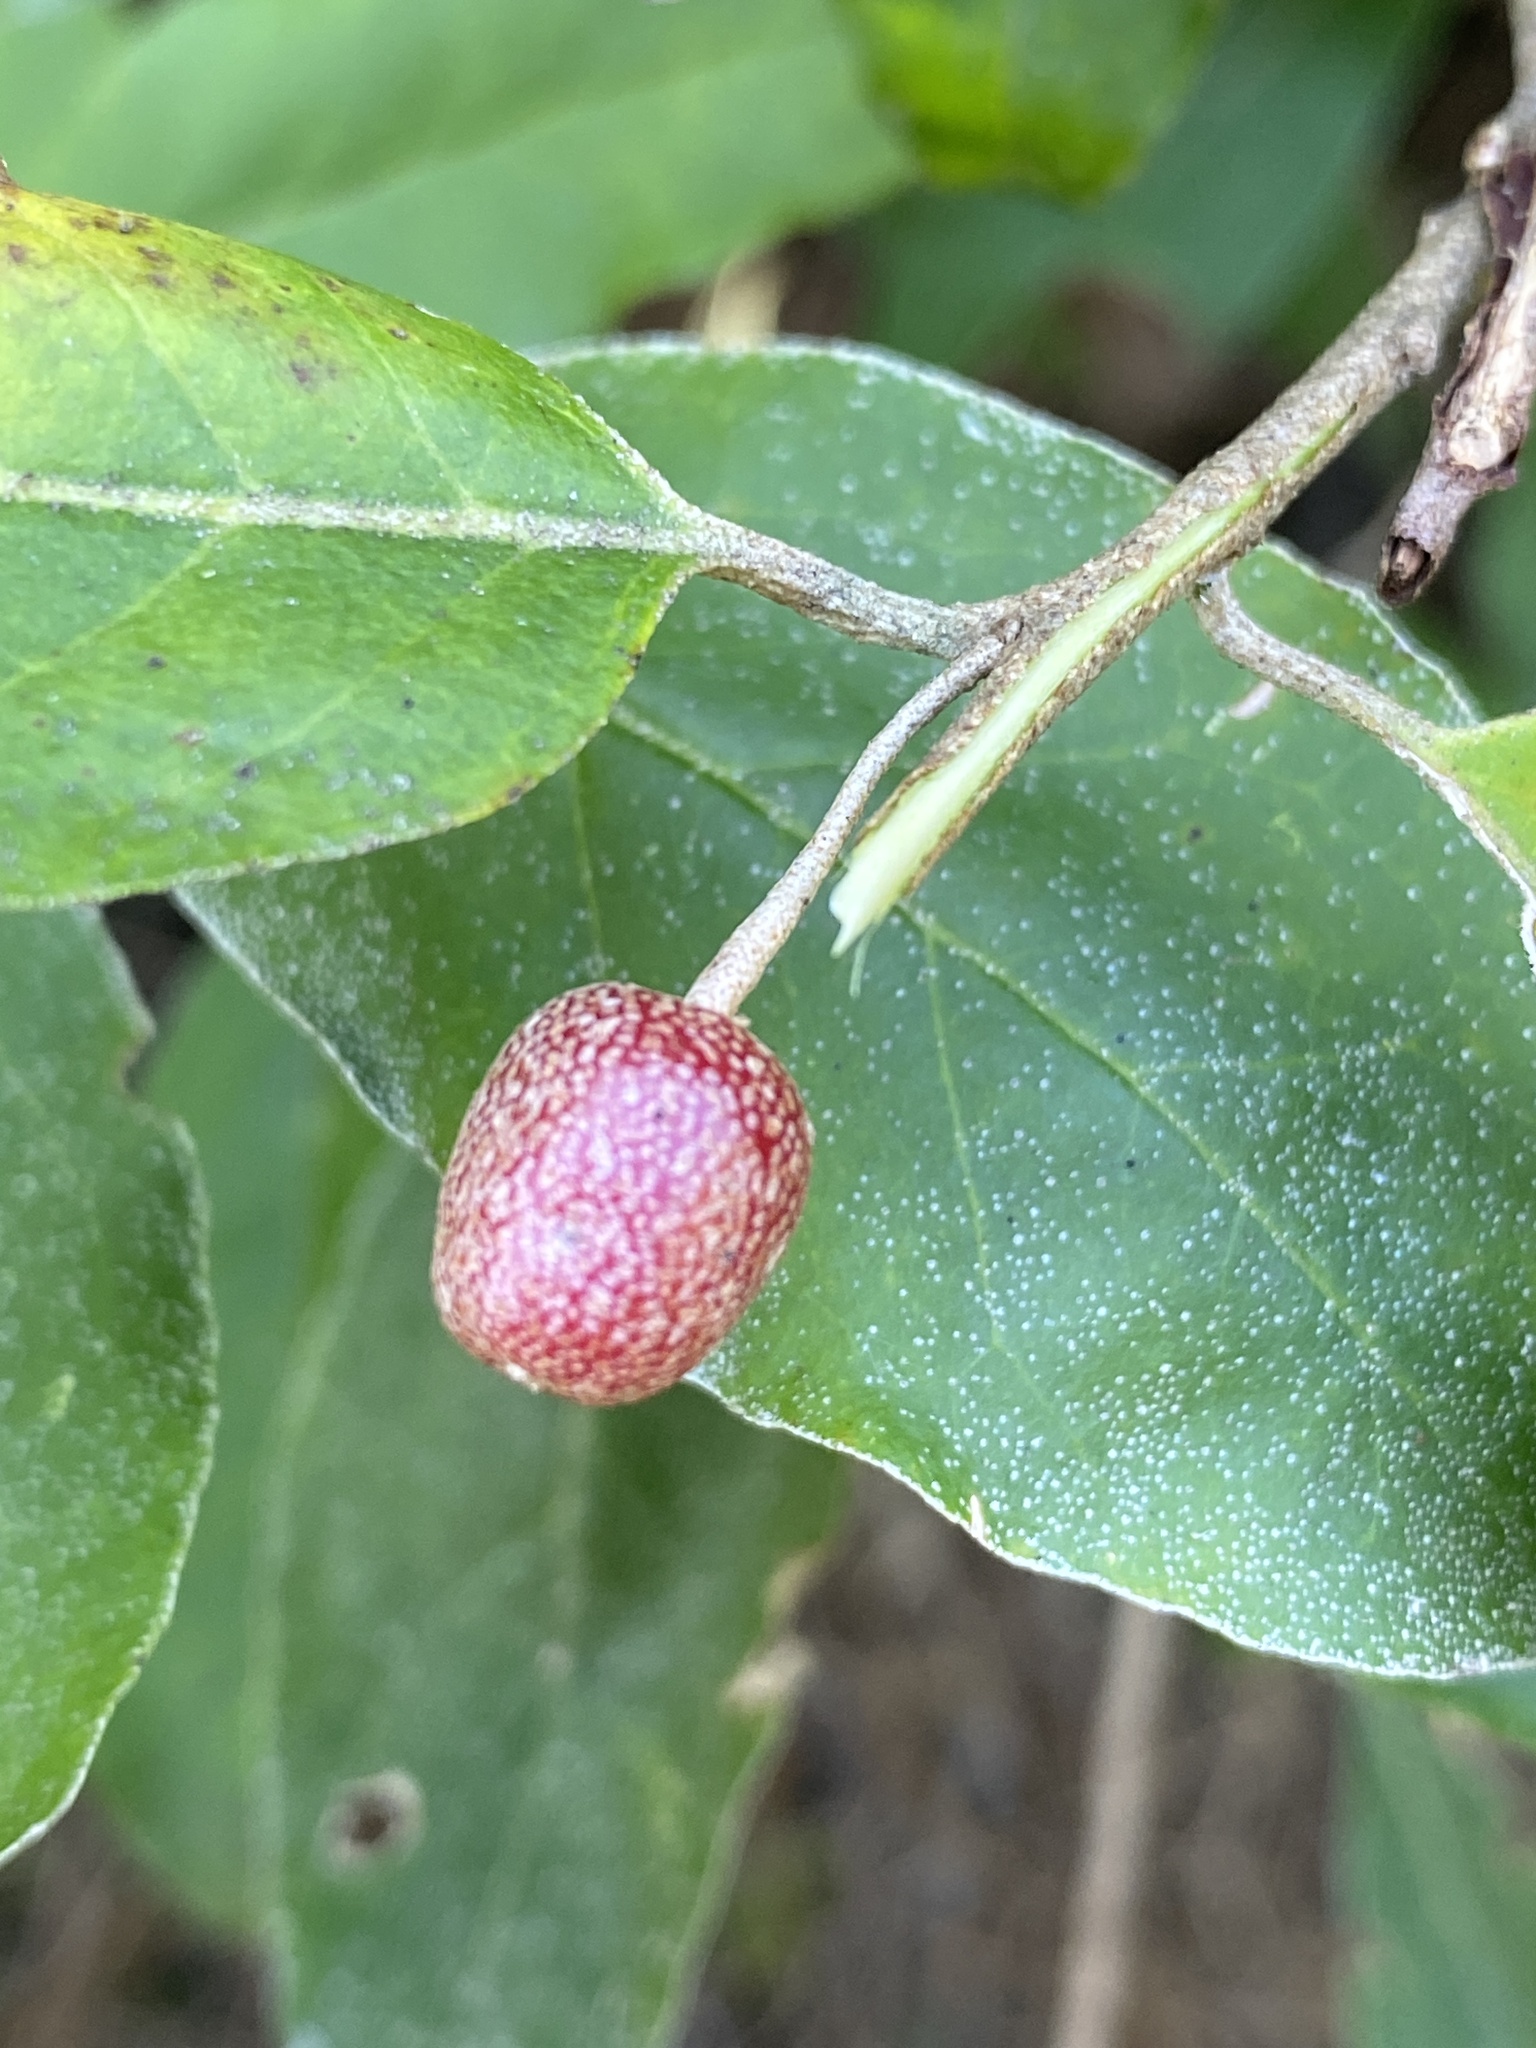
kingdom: Plantae
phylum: Tracheophyta
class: Magnoliopsida
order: Rosales
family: Elaeagnaceae
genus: Elaeagnus
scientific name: Elaeagnus umbellata
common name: Autumn olive
